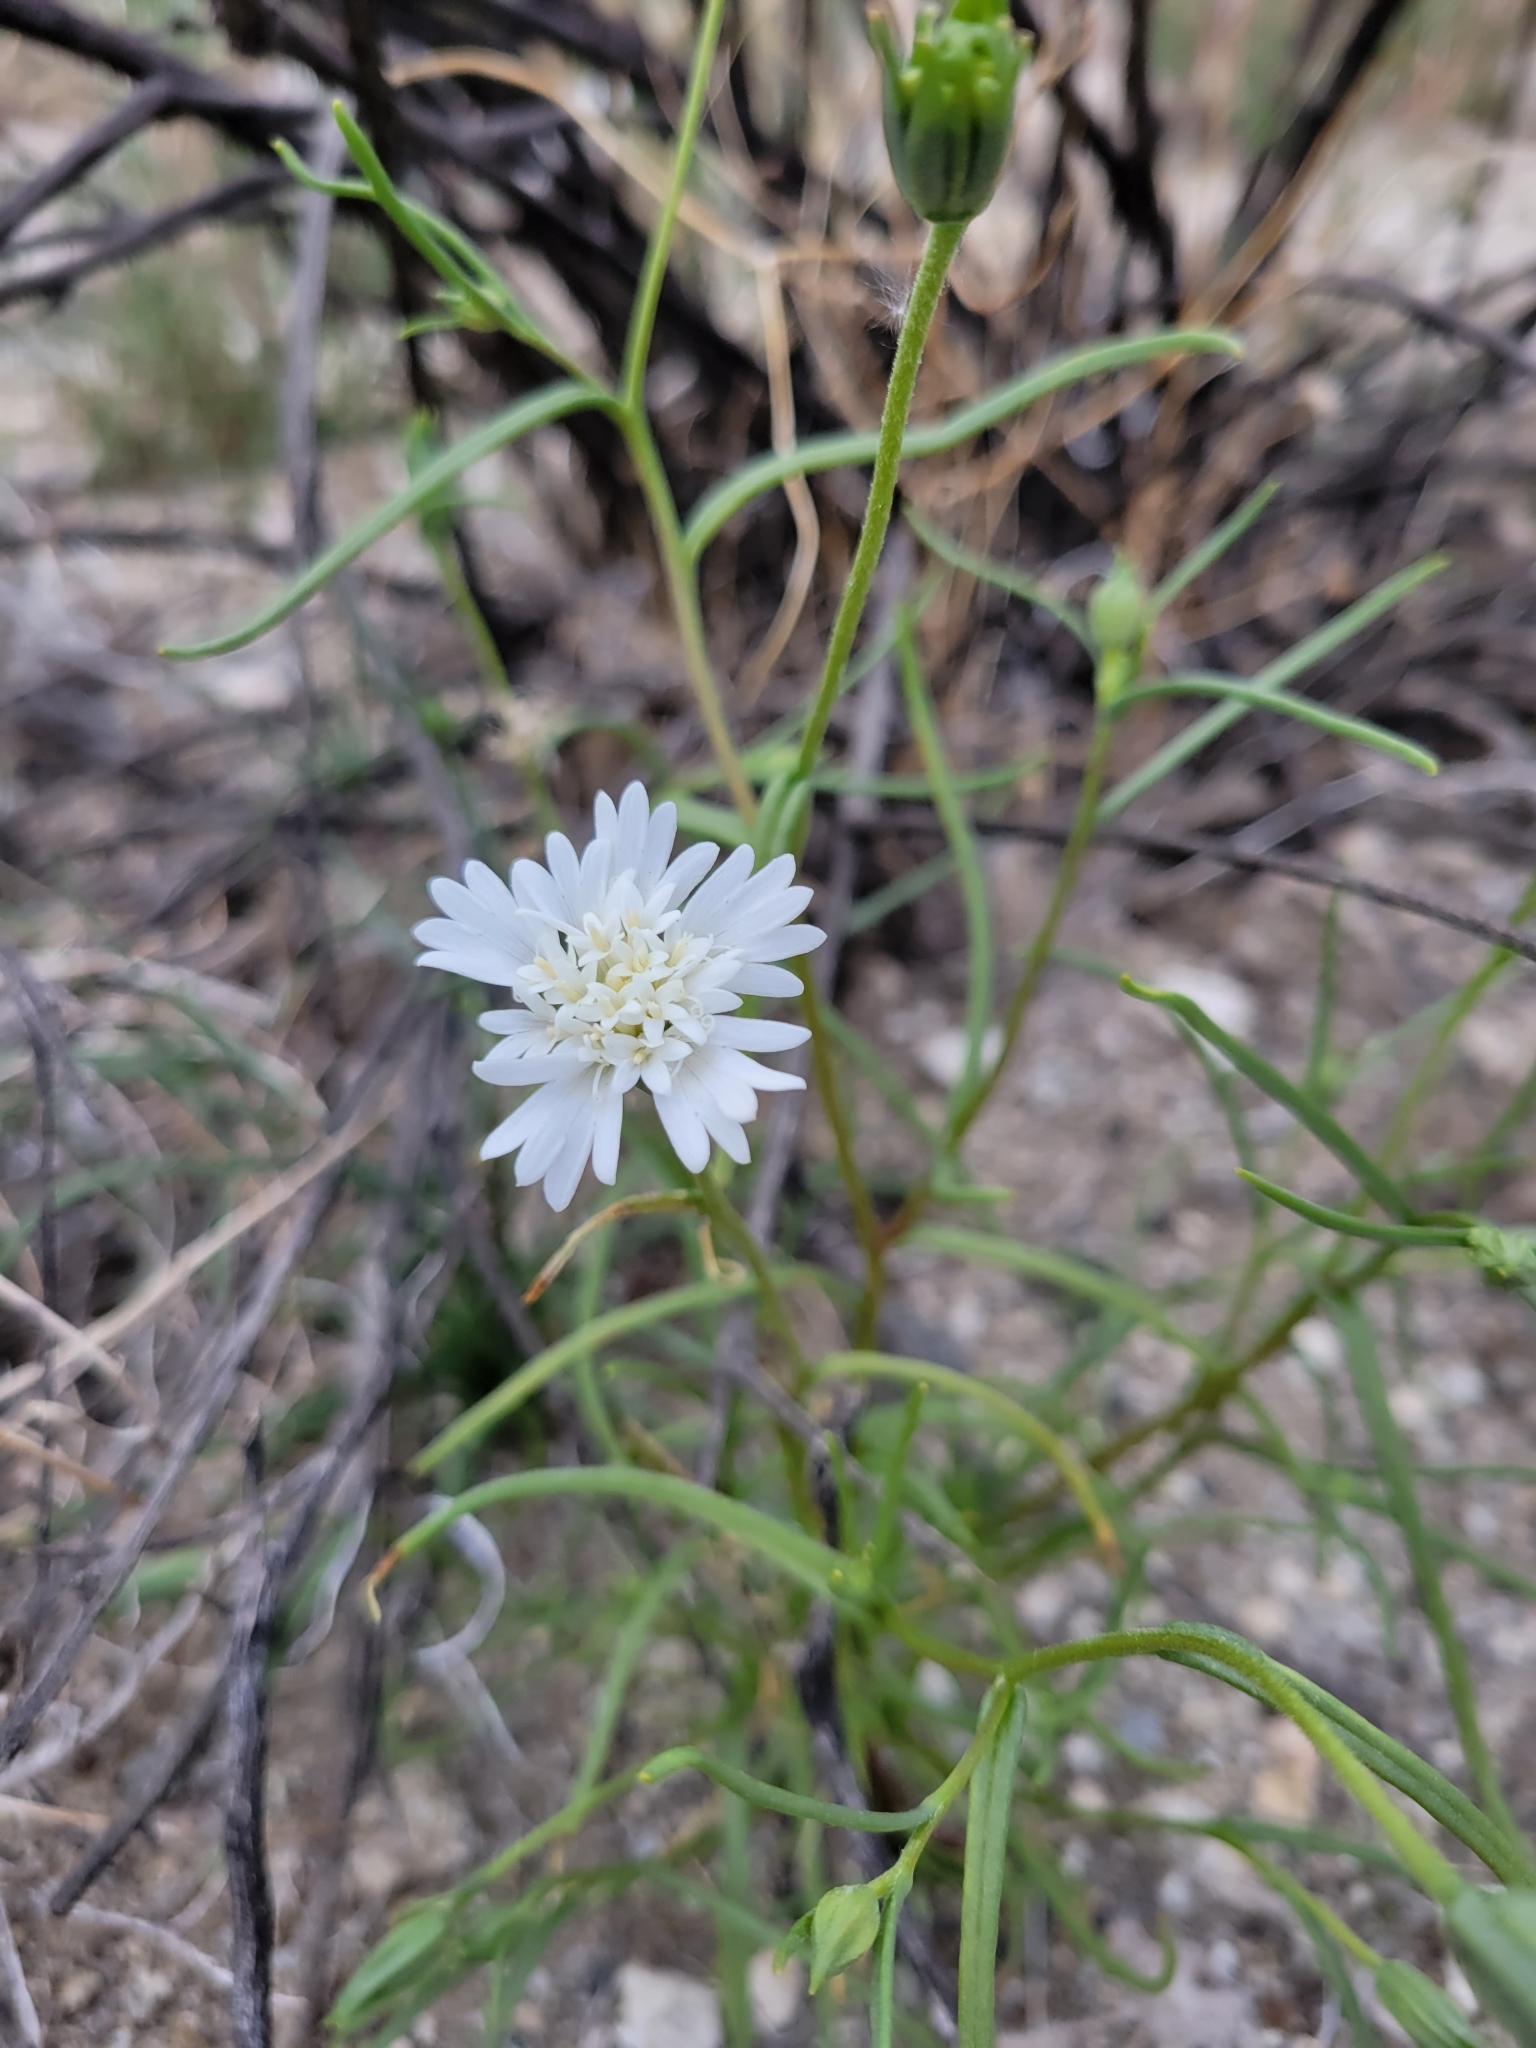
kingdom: Plantae
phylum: Tracheophyta
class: Magnoliopsida
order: Asterales
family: Asteraceae
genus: Chaenactis
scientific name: Chaenactis fremontii
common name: Fremont pincushion
